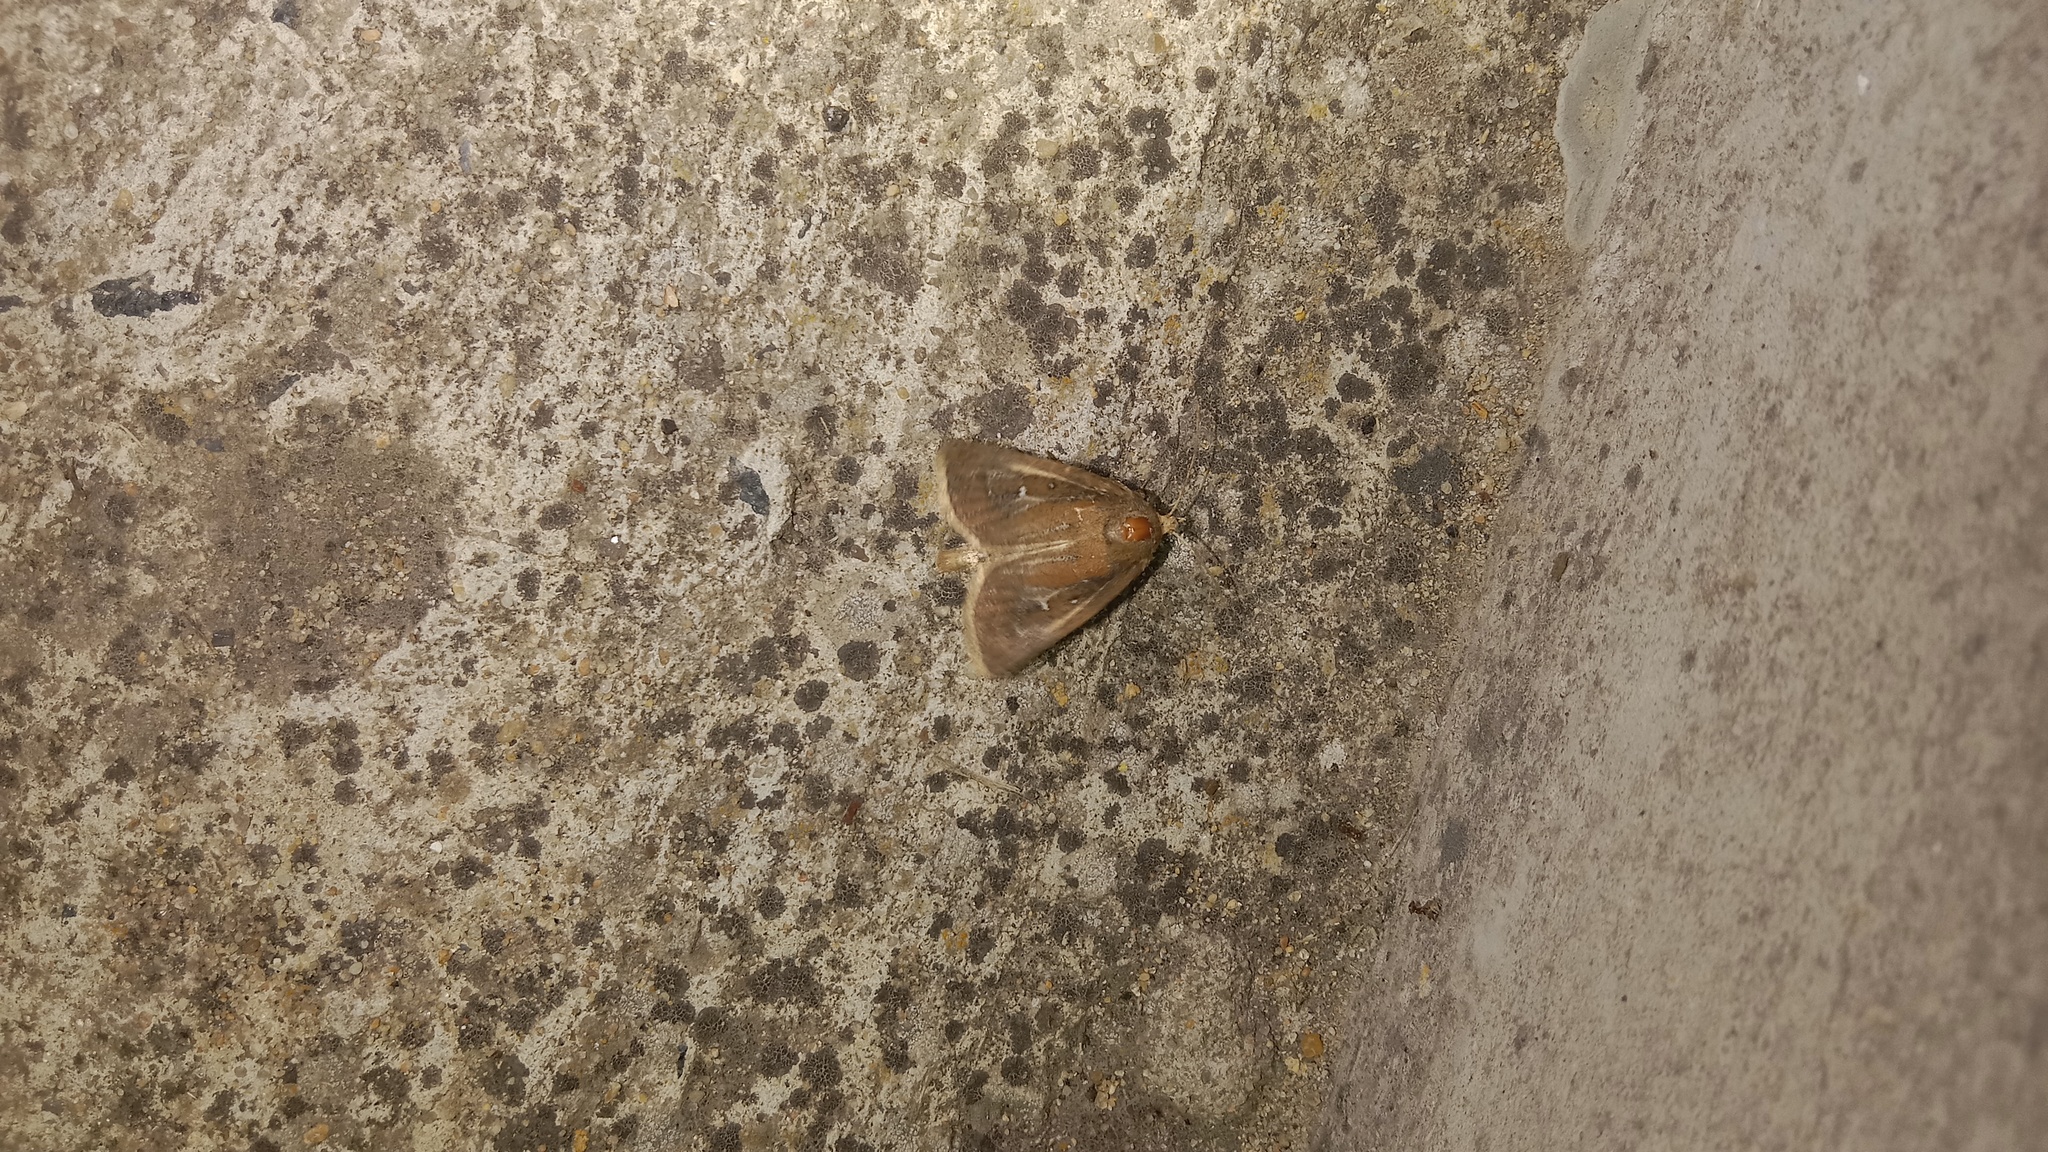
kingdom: Animalia
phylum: Arthropoda
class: Insecta
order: Lepidoptera
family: Noctuidae
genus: Lenisa
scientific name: Lenisa geminipuncta
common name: Twin-spotted wainscot
